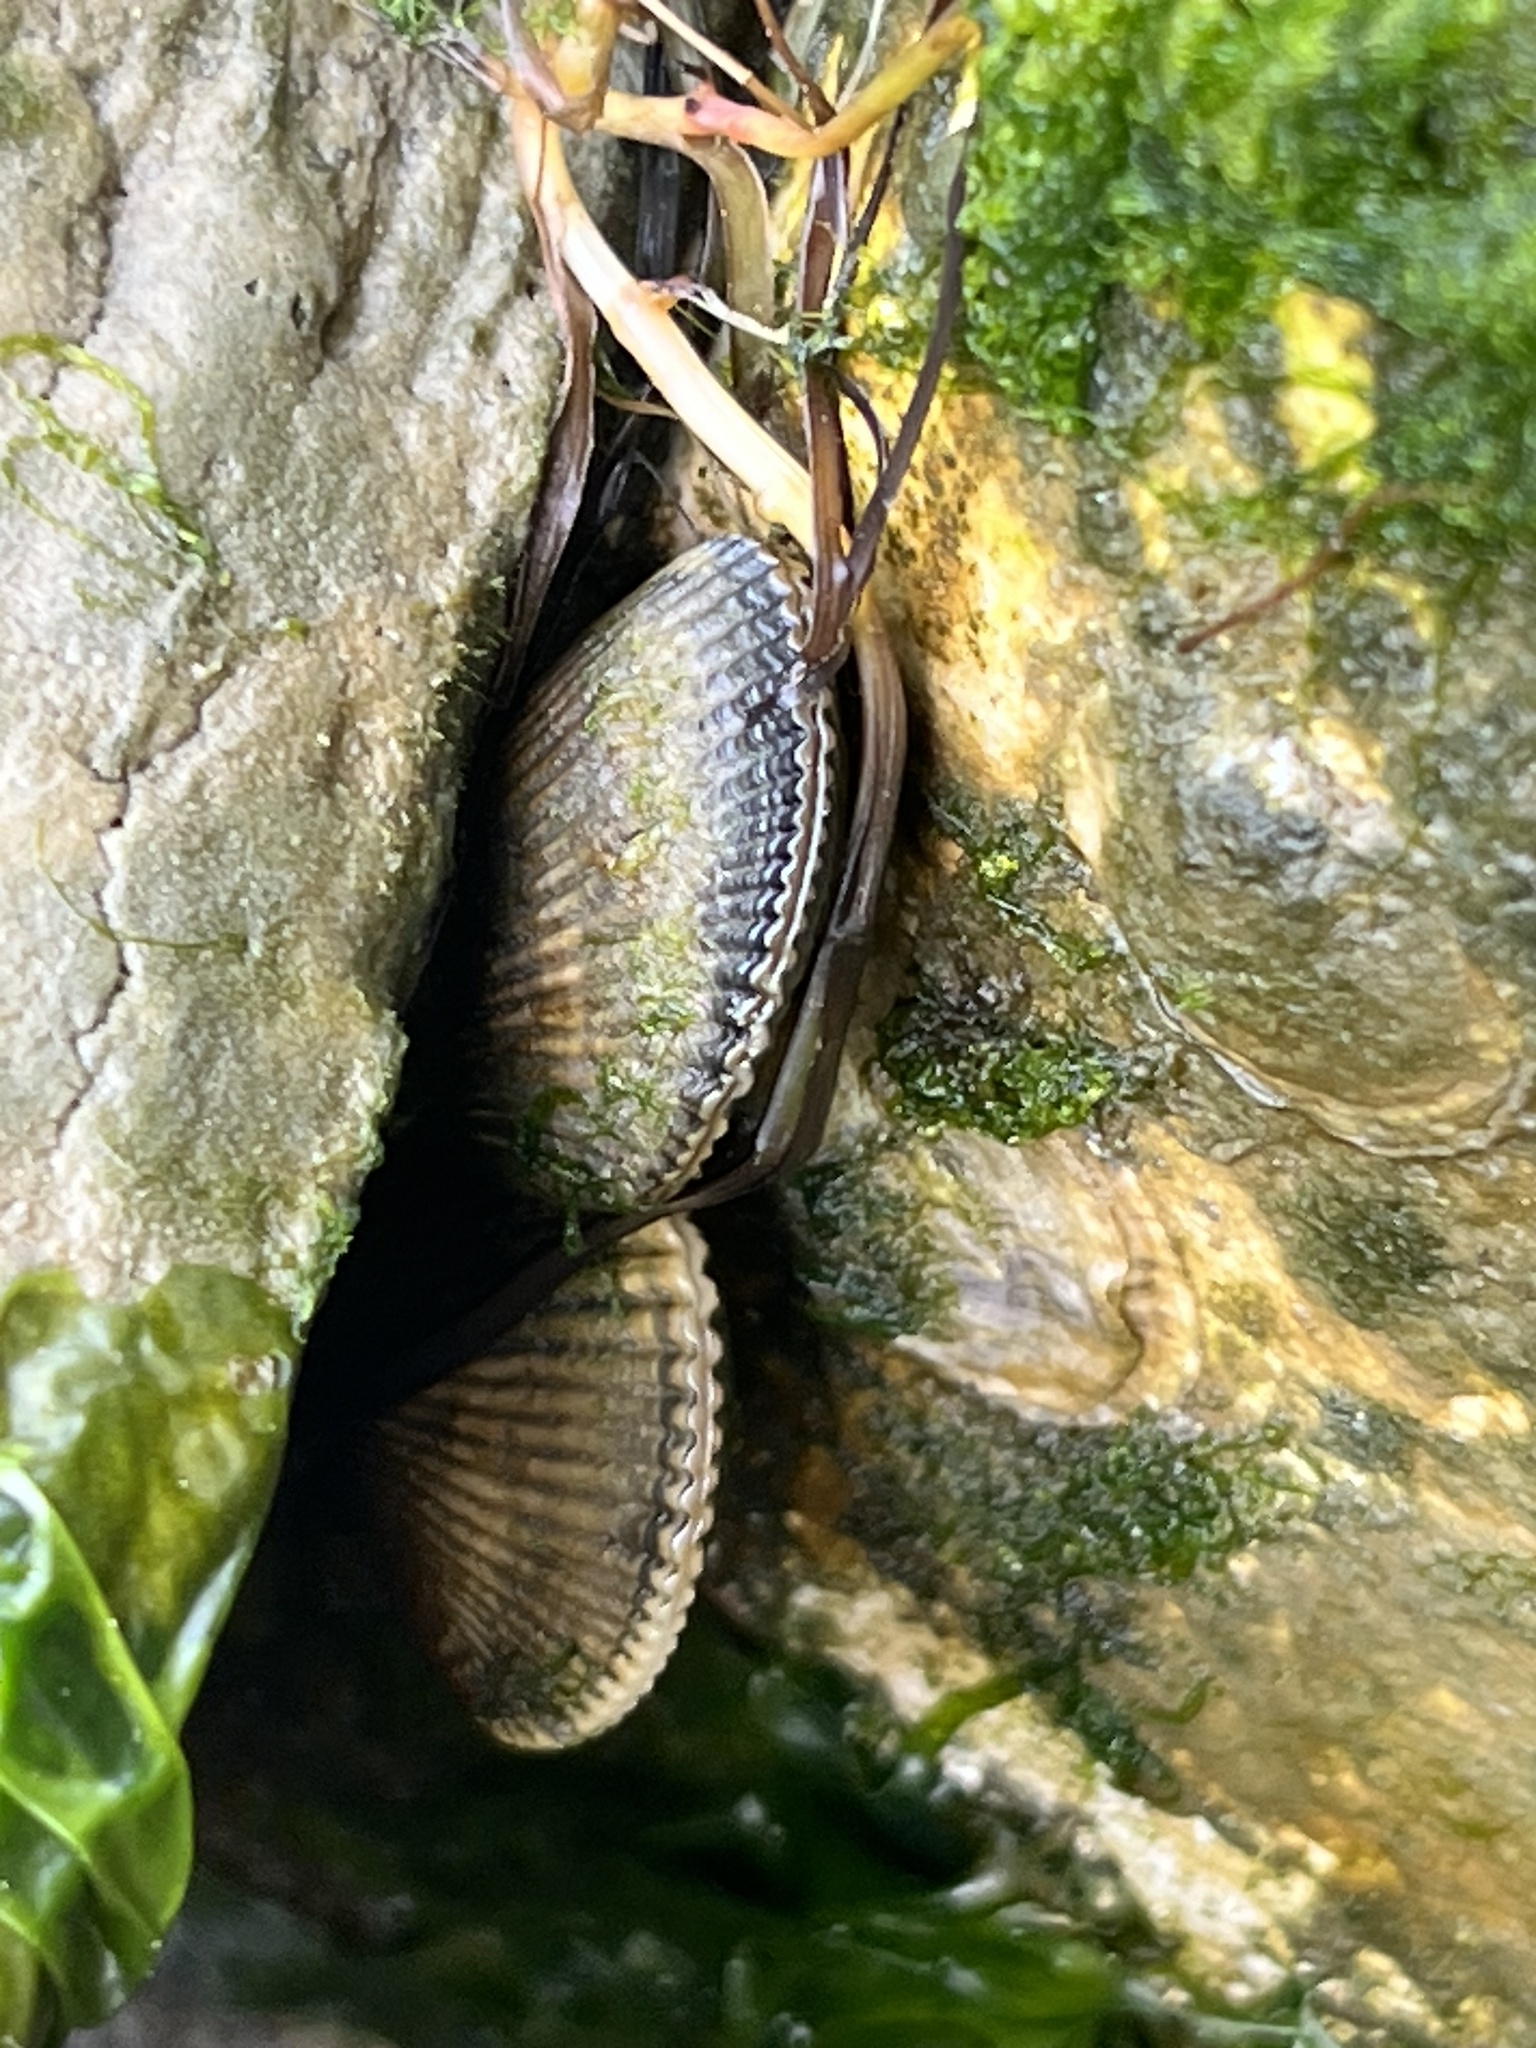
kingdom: Animalia
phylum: Mollusca
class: Bivalvia
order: Mytilida
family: Mytilidae
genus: Geukensia
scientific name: Geukensia demissa
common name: Ribbed mussel
